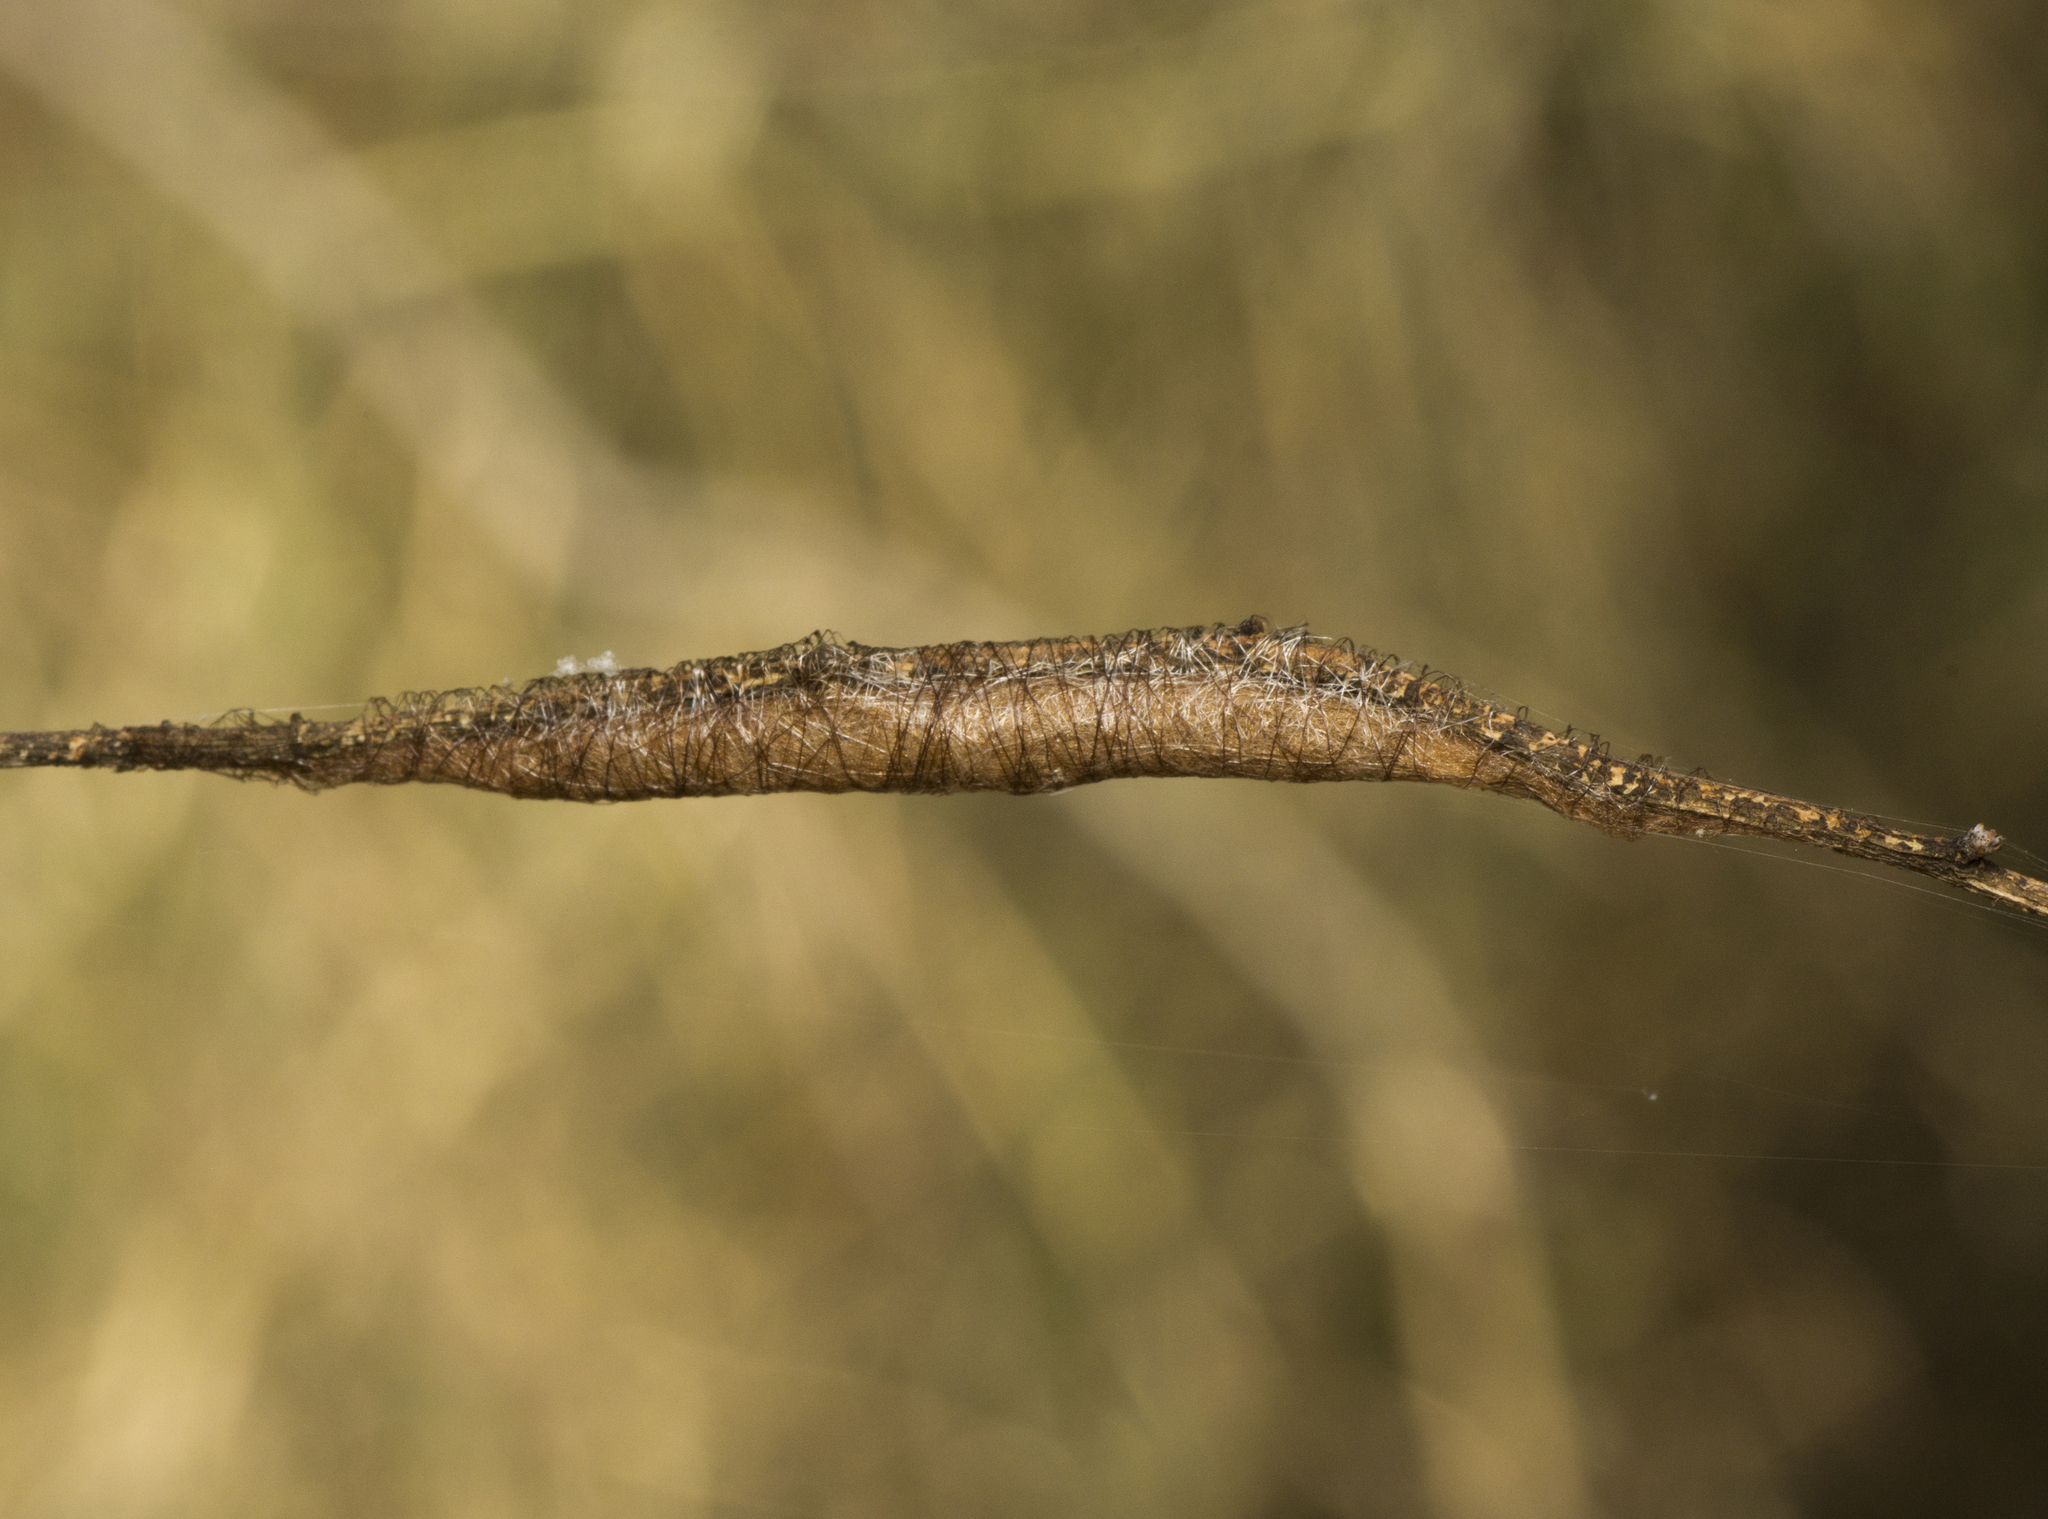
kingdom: Animalia
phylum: Arthropoda
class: Arachnida
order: Araneae
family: Araneidae
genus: Austracantha
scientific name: Austracantha minax
